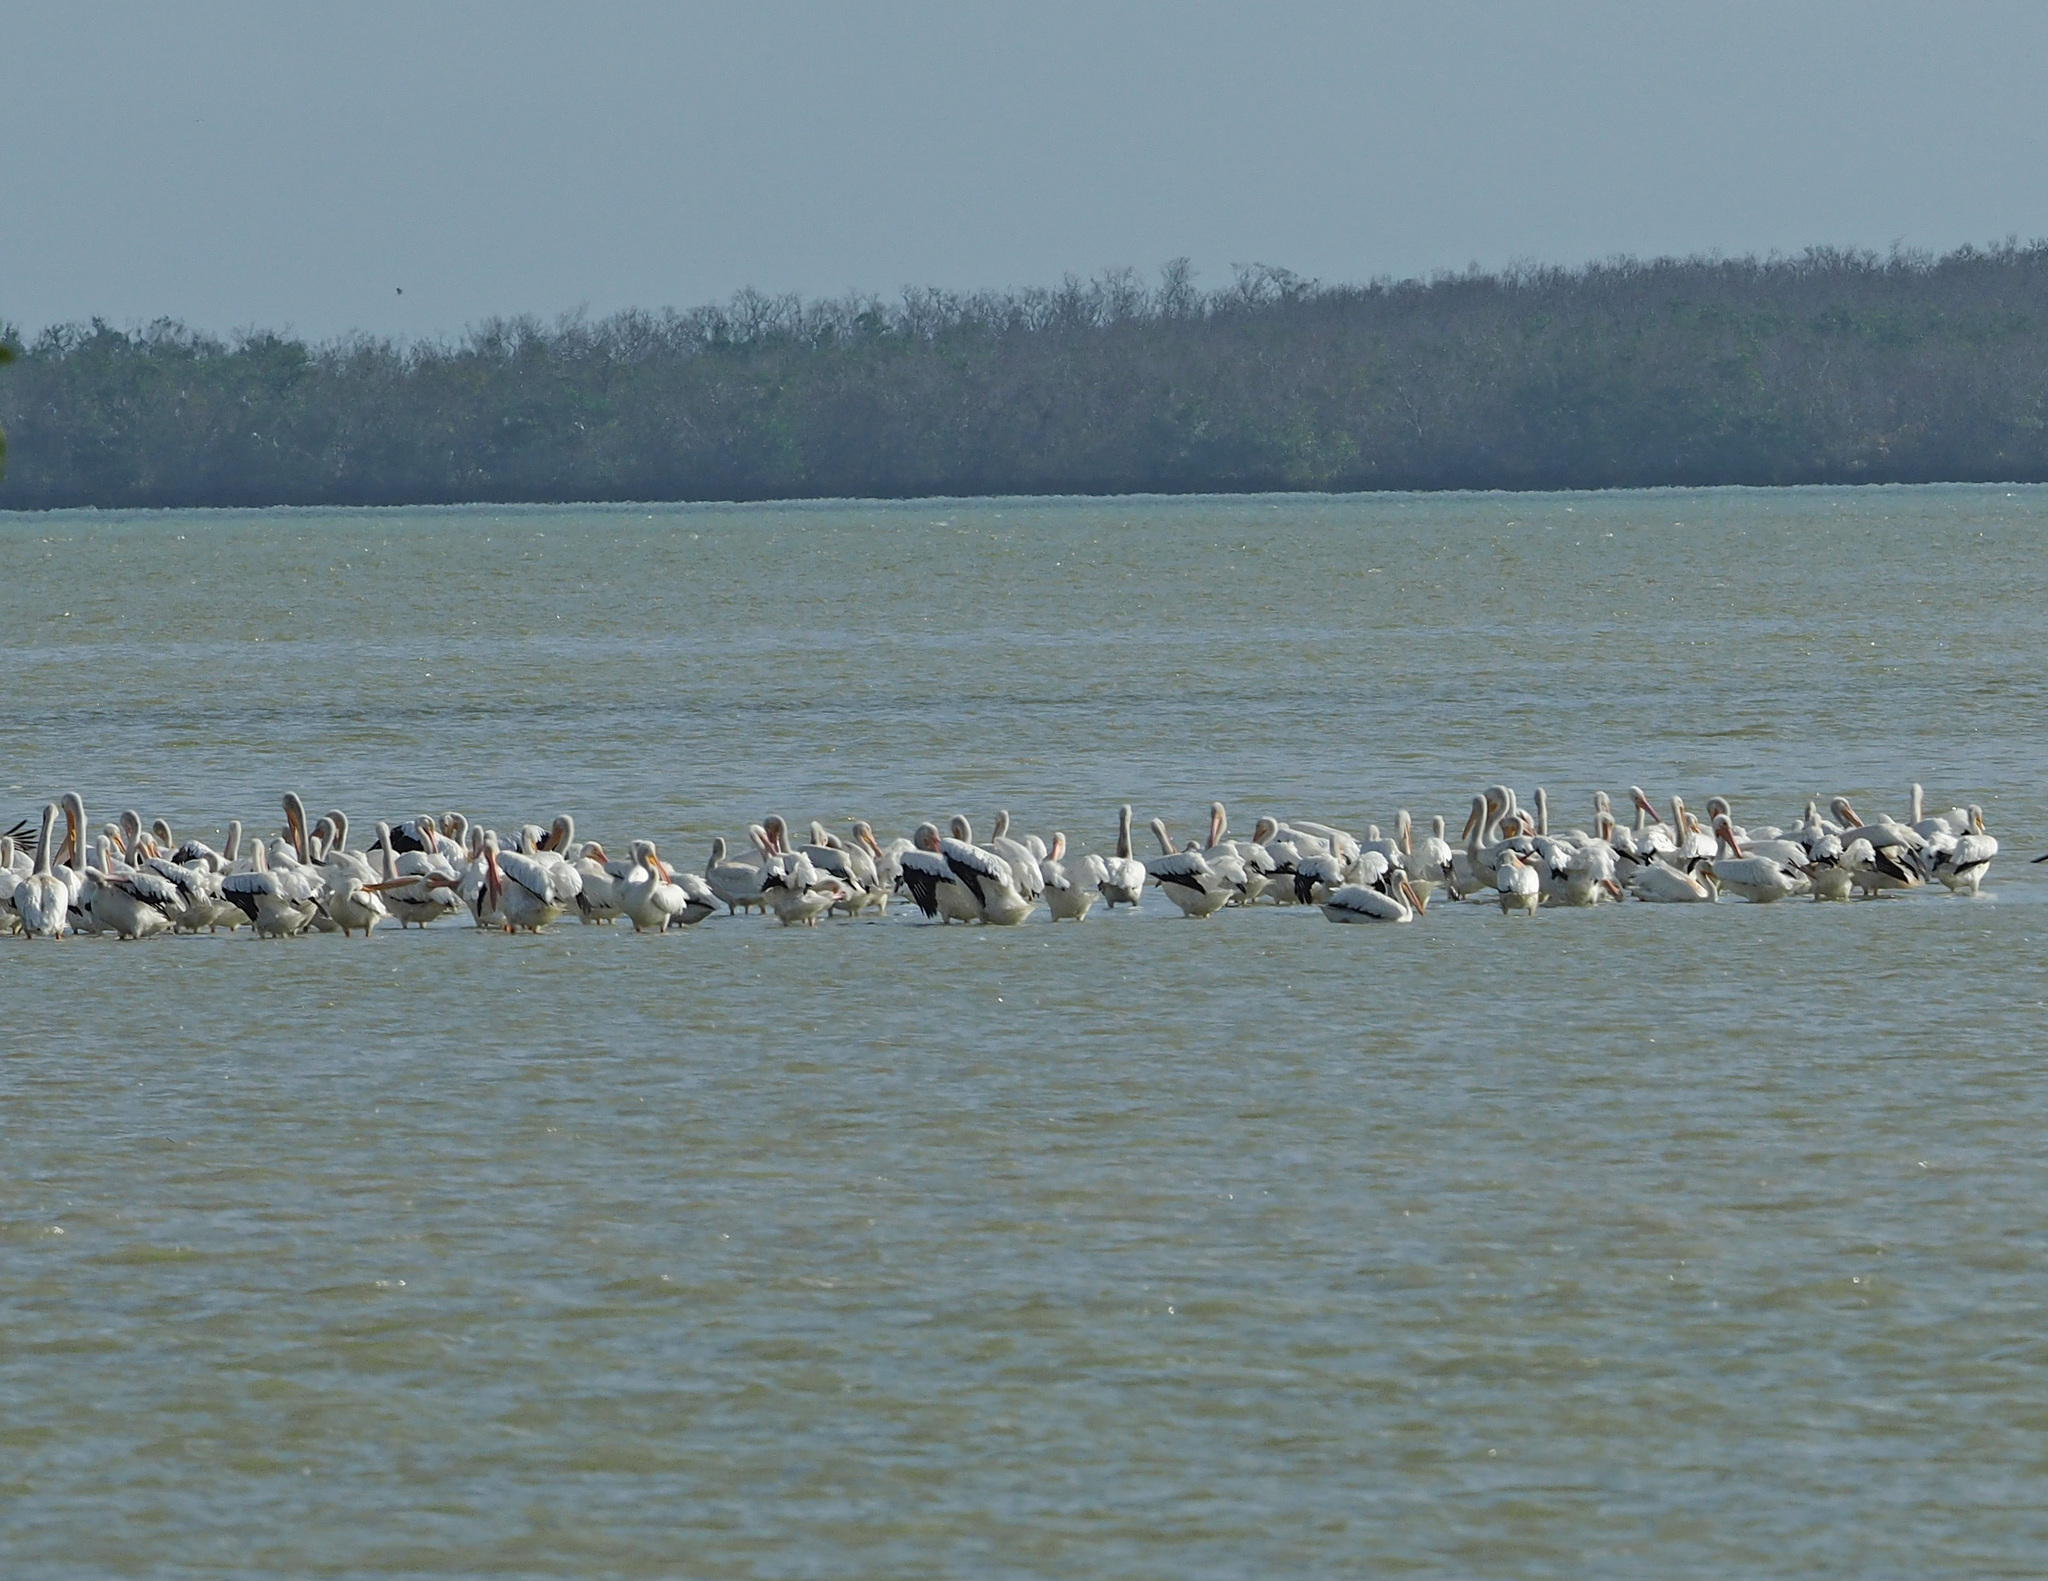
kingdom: Animalia
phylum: Chordata
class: Aves
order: Pelecaniformes
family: Pelecanidae
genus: Pelecanus
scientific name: Pelecanus erythrorhynchos
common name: American white pelican
